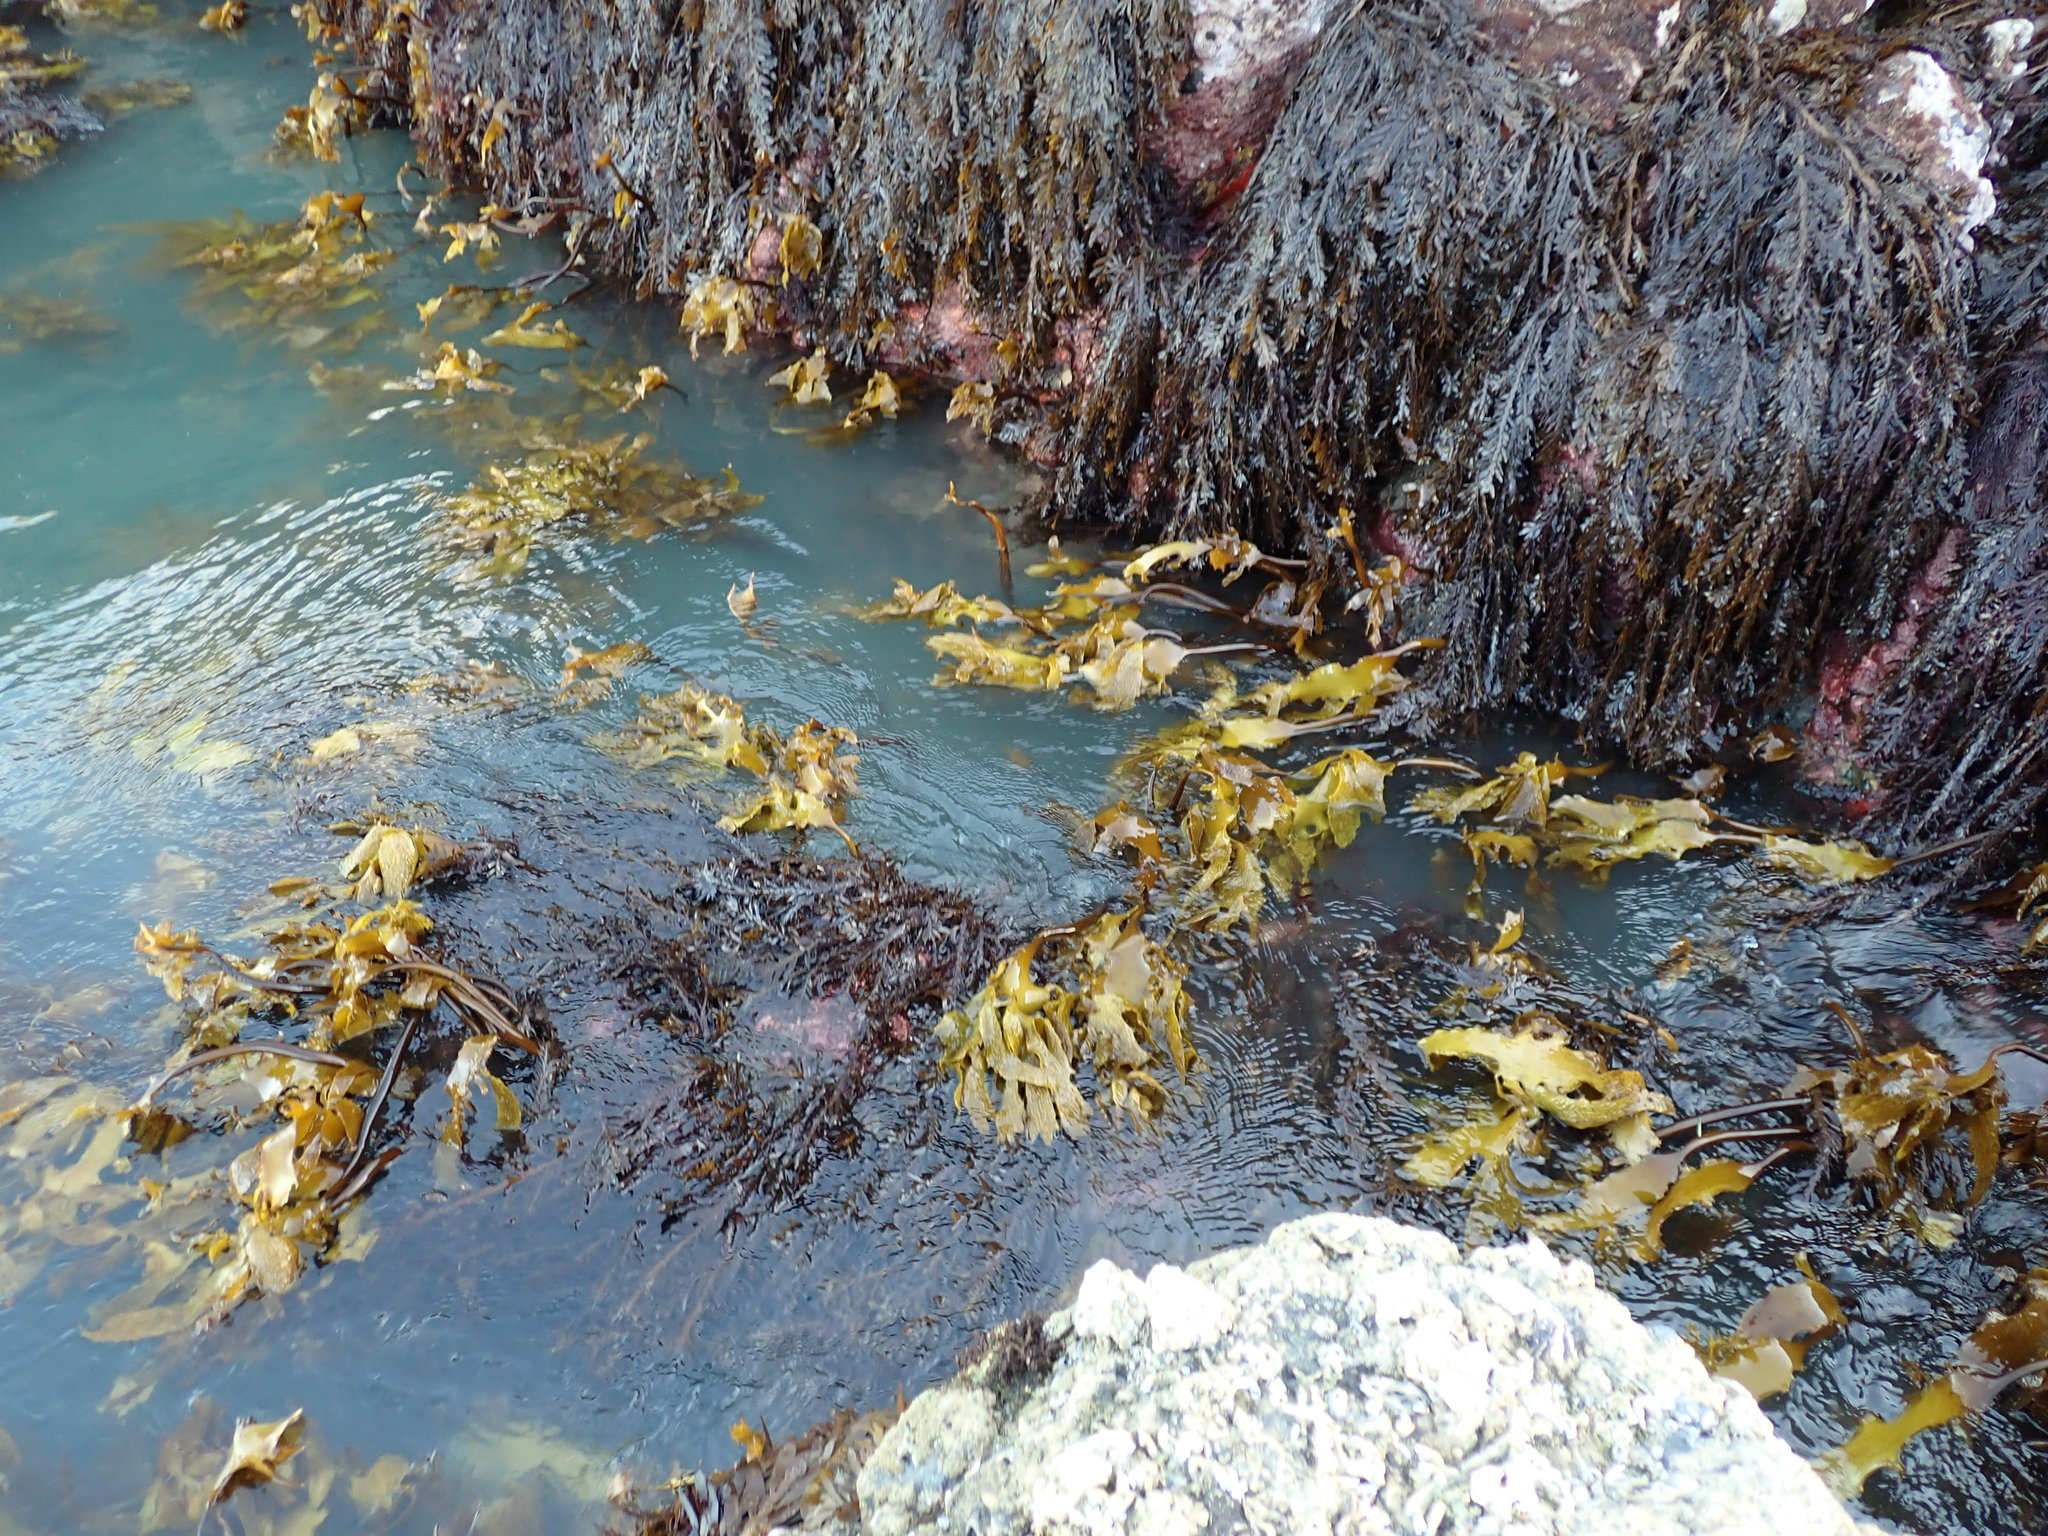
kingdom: Chromista
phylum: Ochrophyta
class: Phaeophyceae
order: Laminariales
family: Lessoniaceae
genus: Ecklonia
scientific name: Ecklonia radiata
